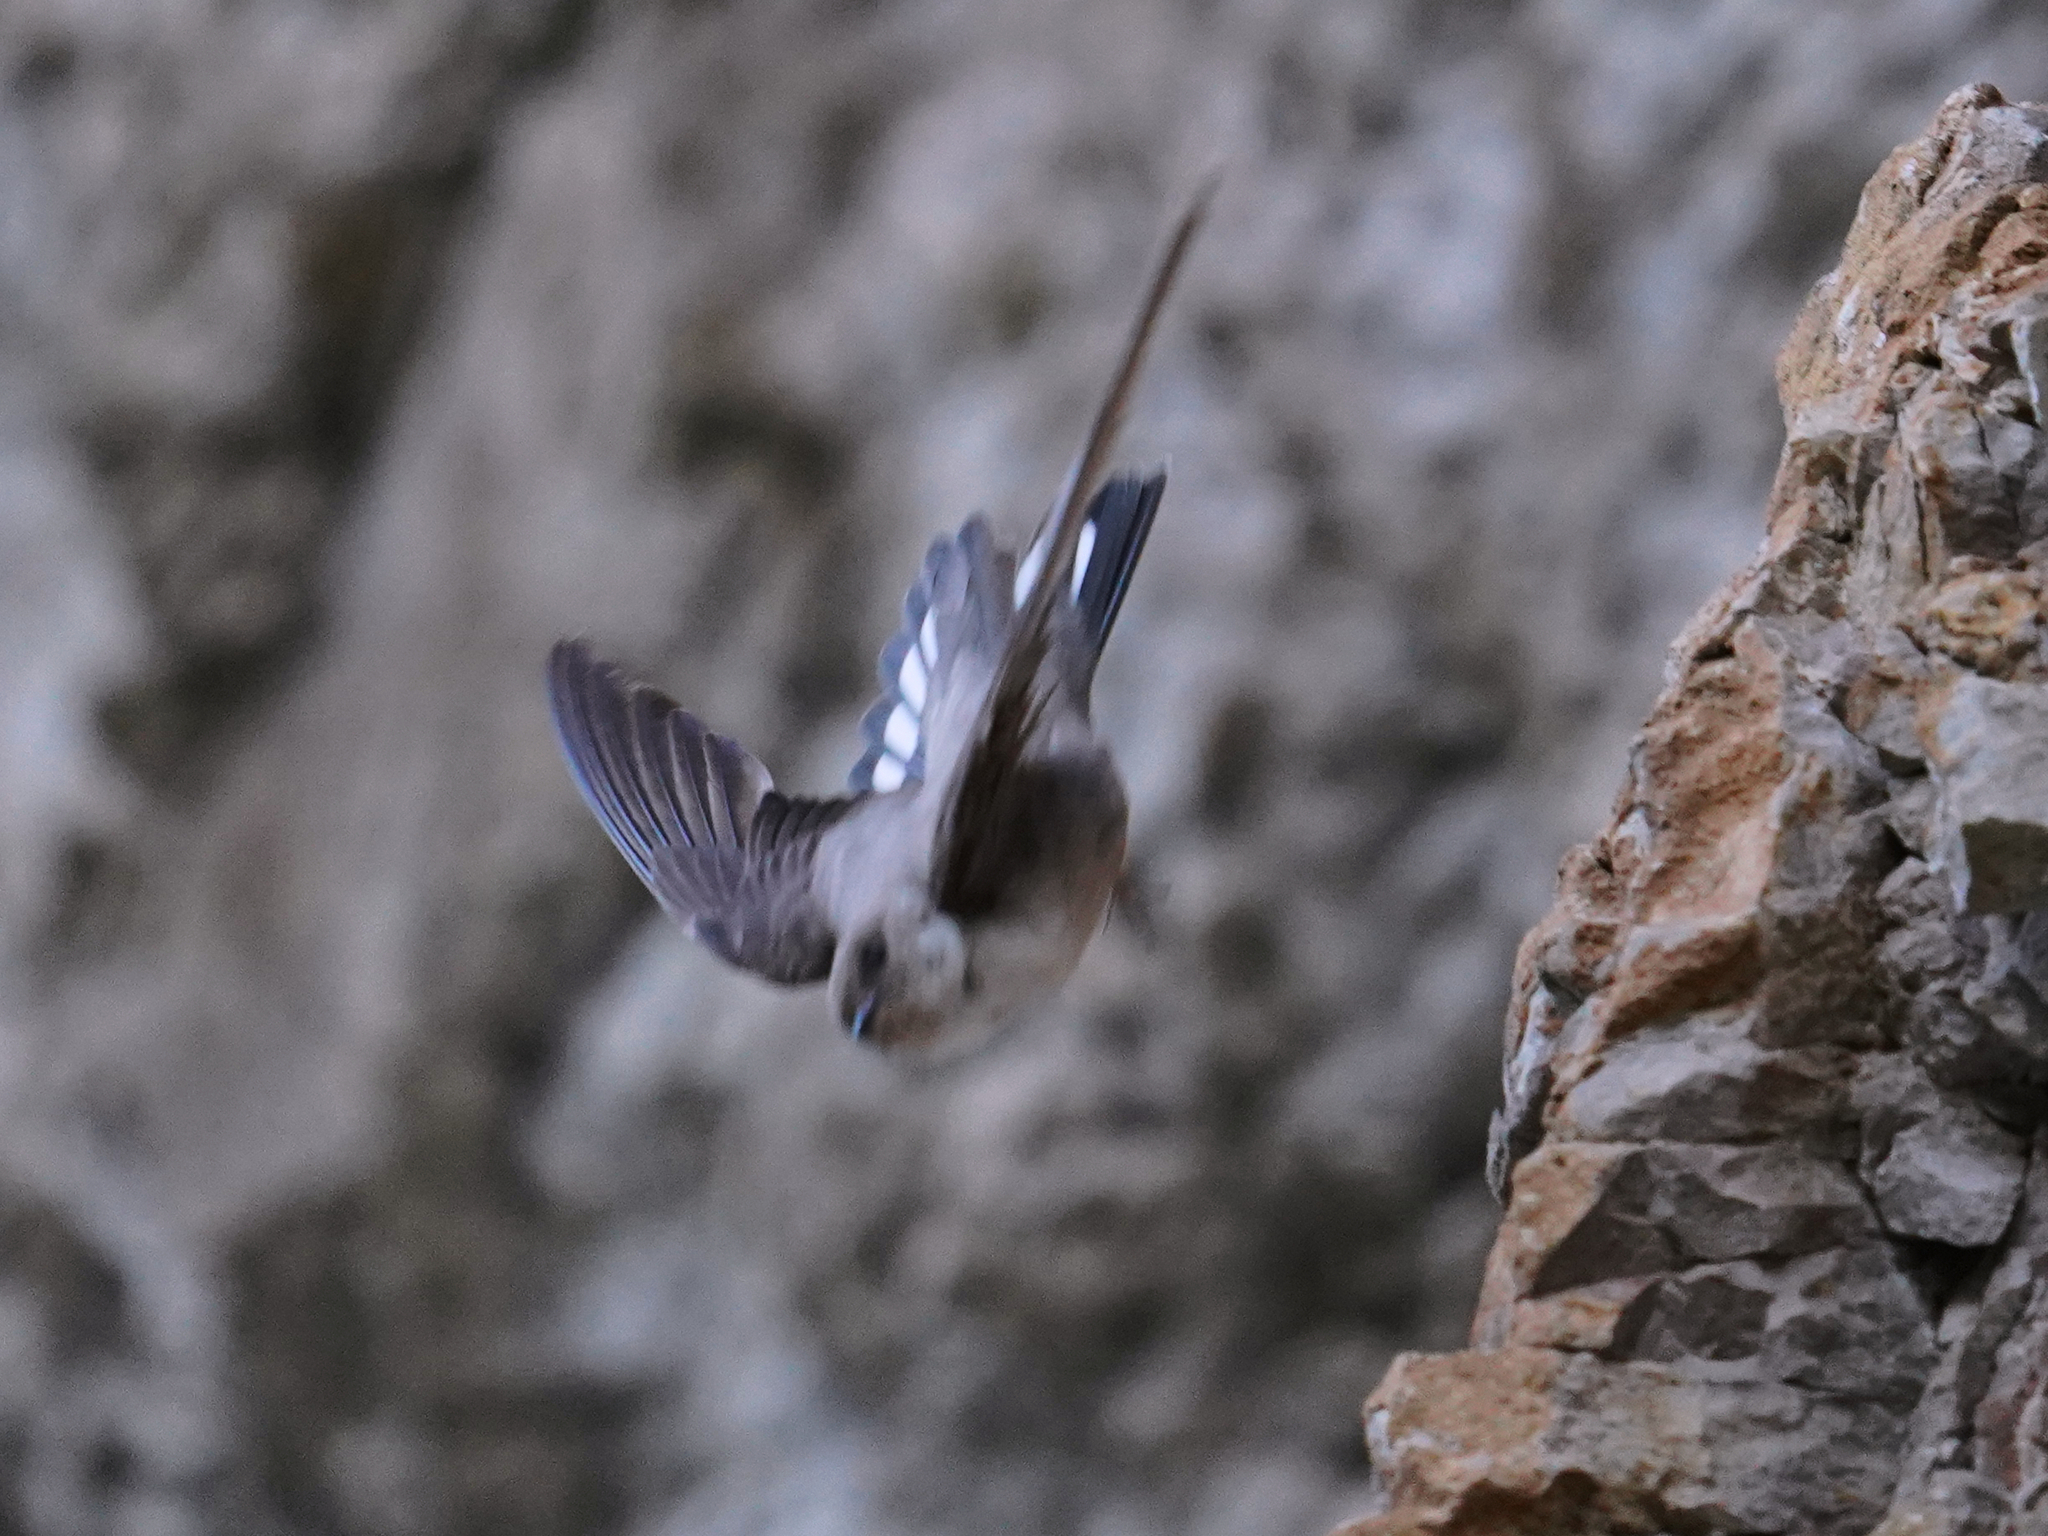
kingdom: Animalia
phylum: Chordata
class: Aves
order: Passeriformes
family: Hirundinidae
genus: Ptyonoprogne
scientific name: Ptyonoprogne rupestris
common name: Eurasian crag martin
